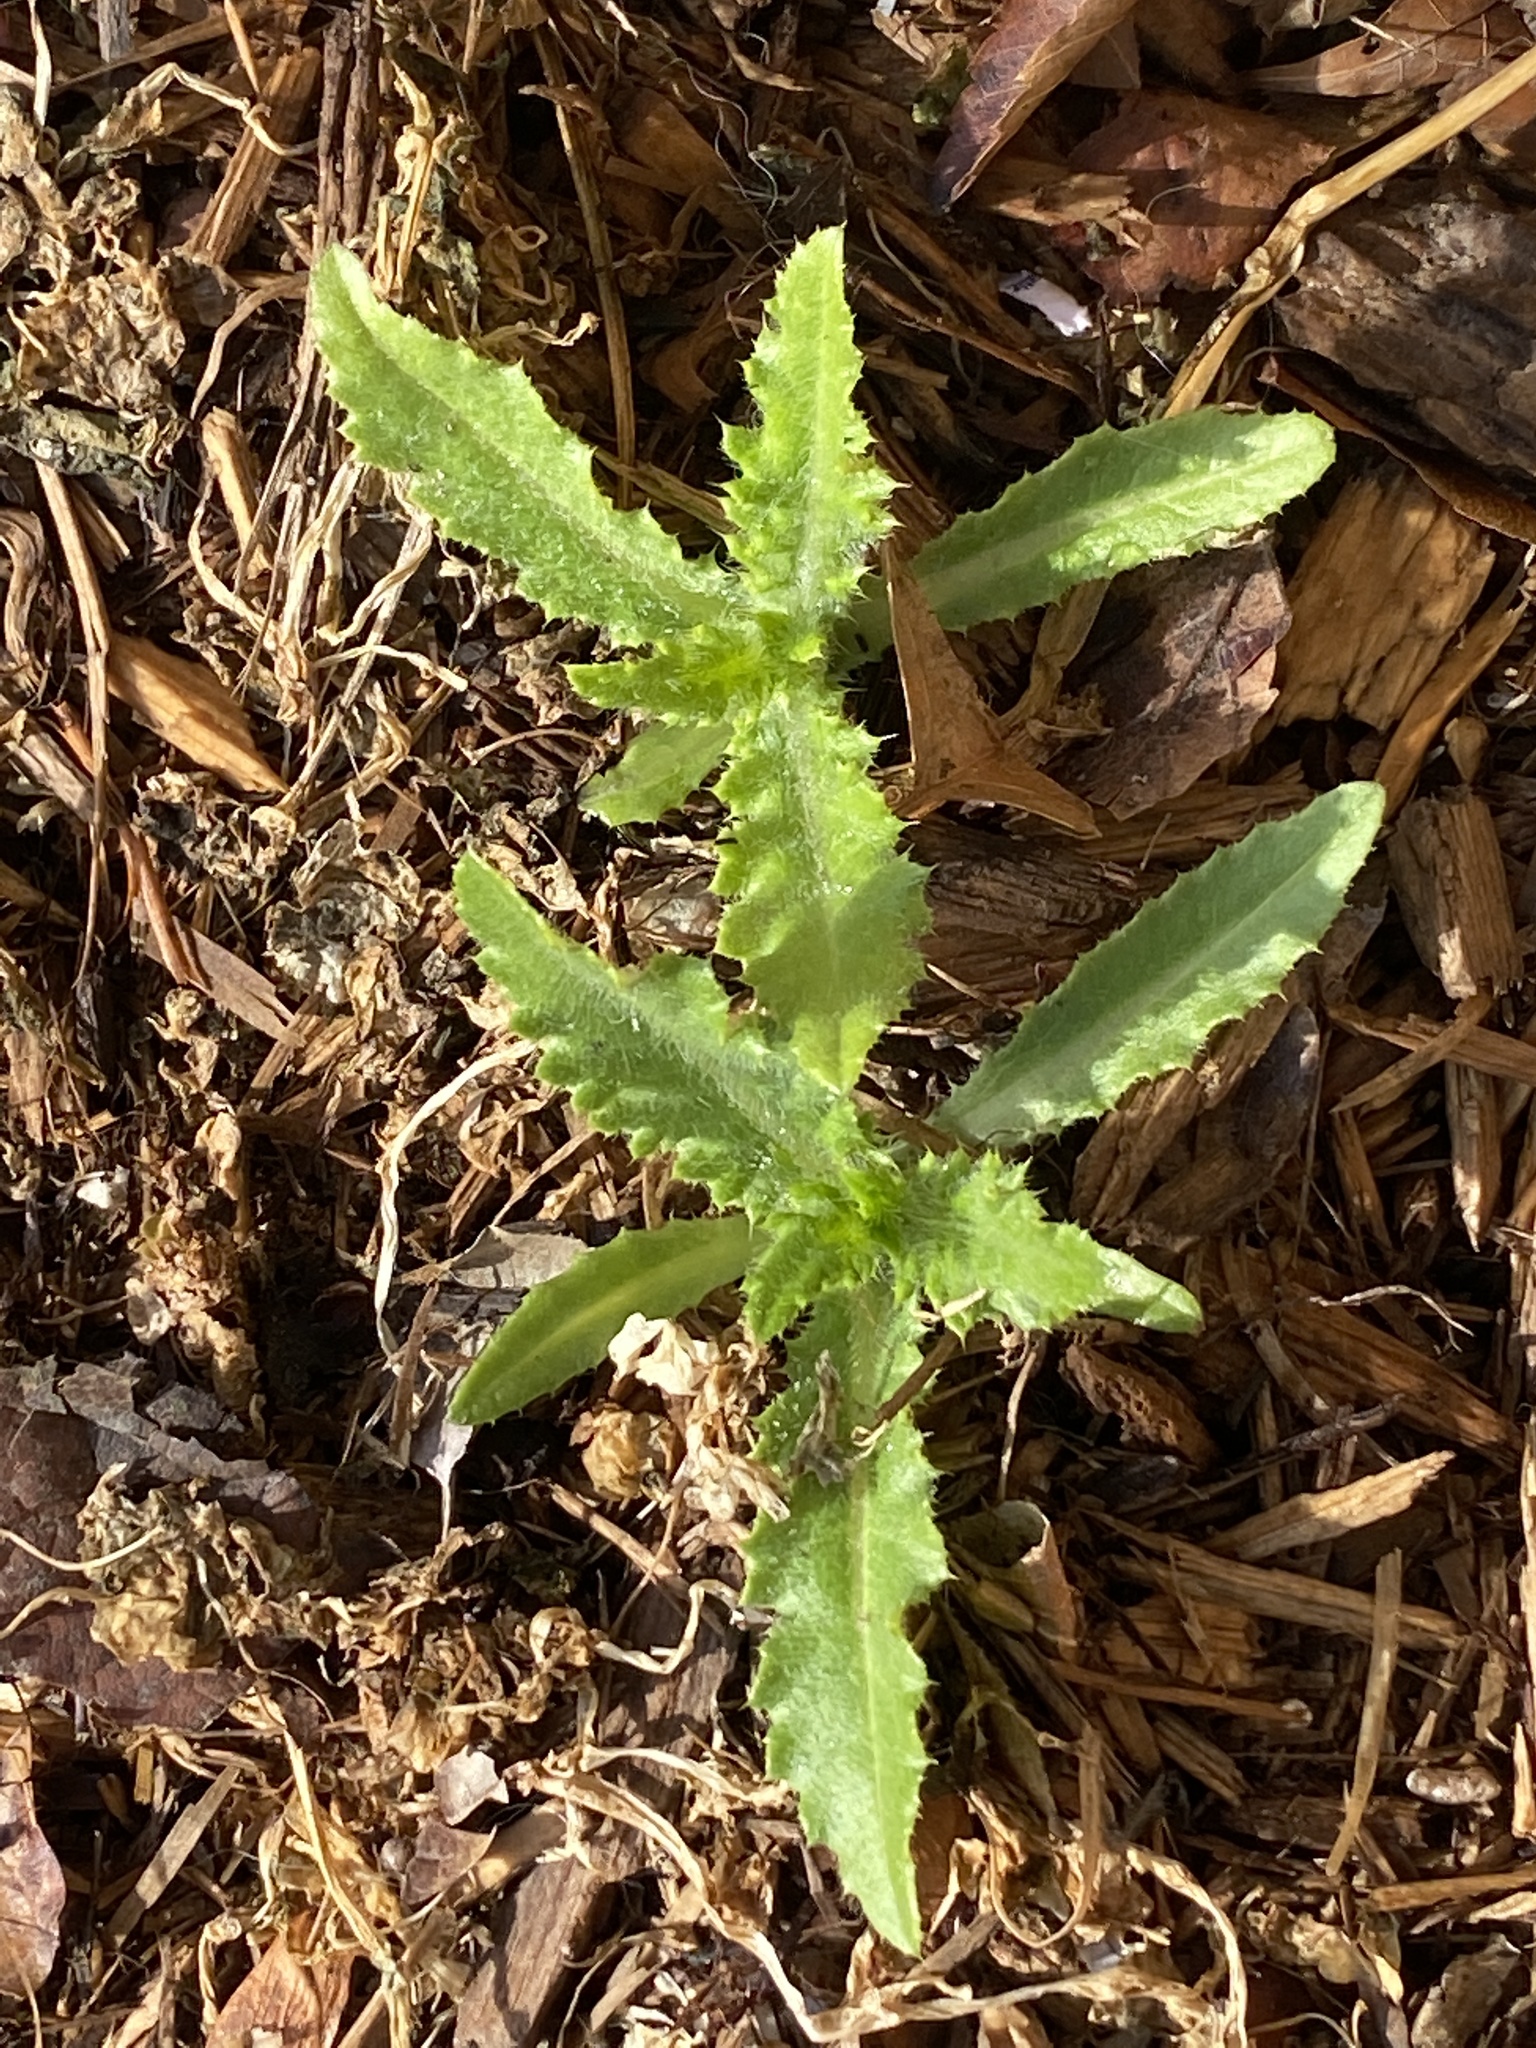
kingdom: Plantae
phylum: Tracheophyta
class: Magnoliopsida
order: Asterales
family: Asteraceae
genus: Cirsium
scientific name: Cirsium arvense
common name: Creeping thistle
